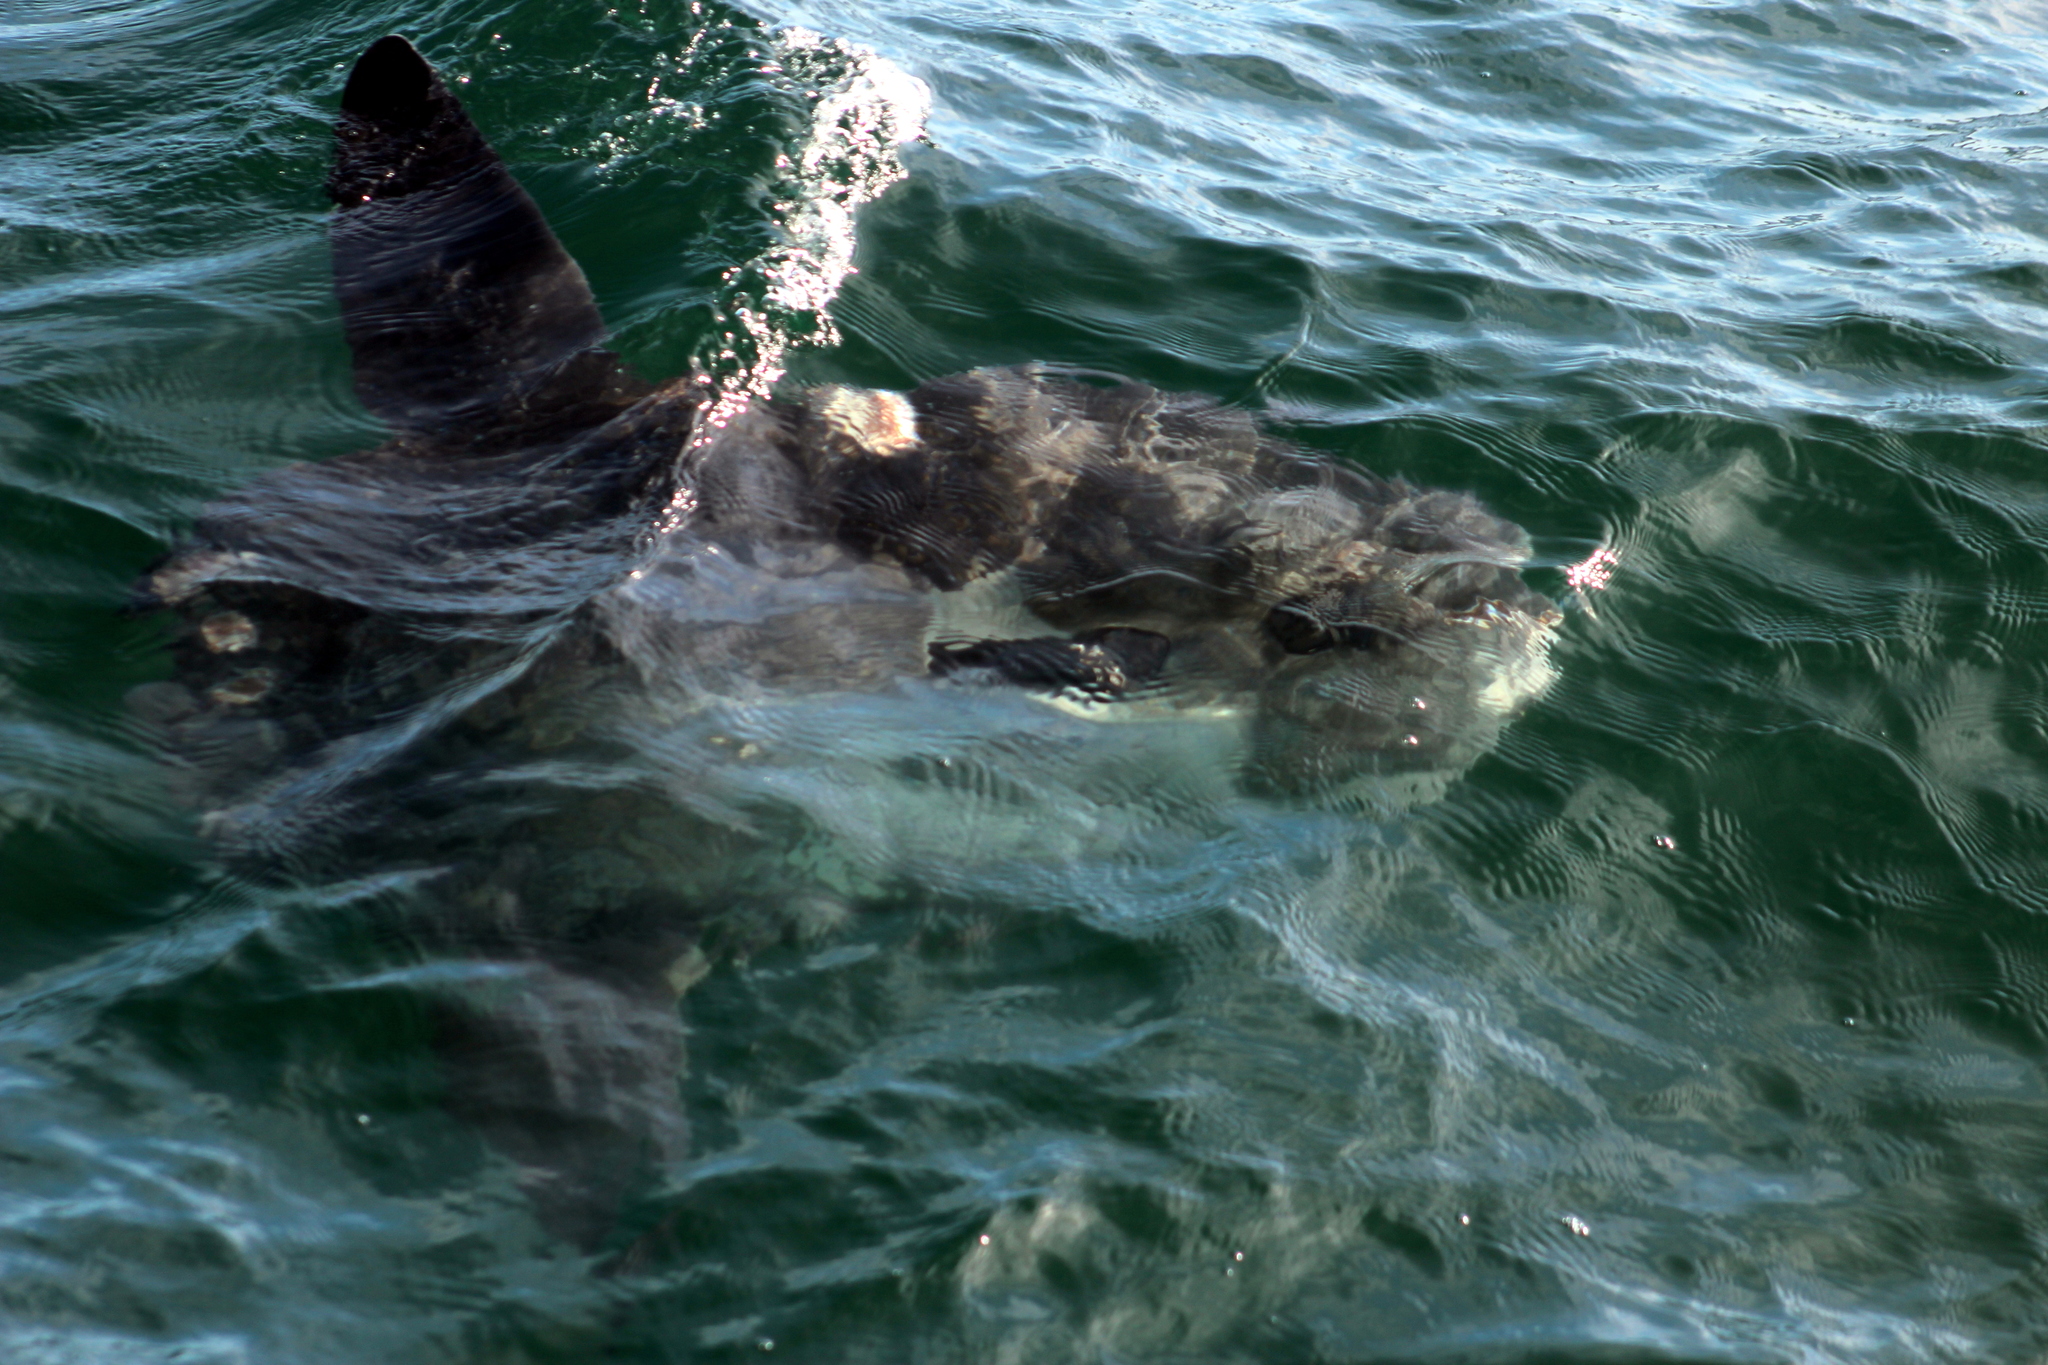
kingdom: Animalia
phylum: Chordata
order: Tetraodontiformes
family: Molidae
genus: Mola
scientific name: Mola mola
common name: Ocean sunfish
